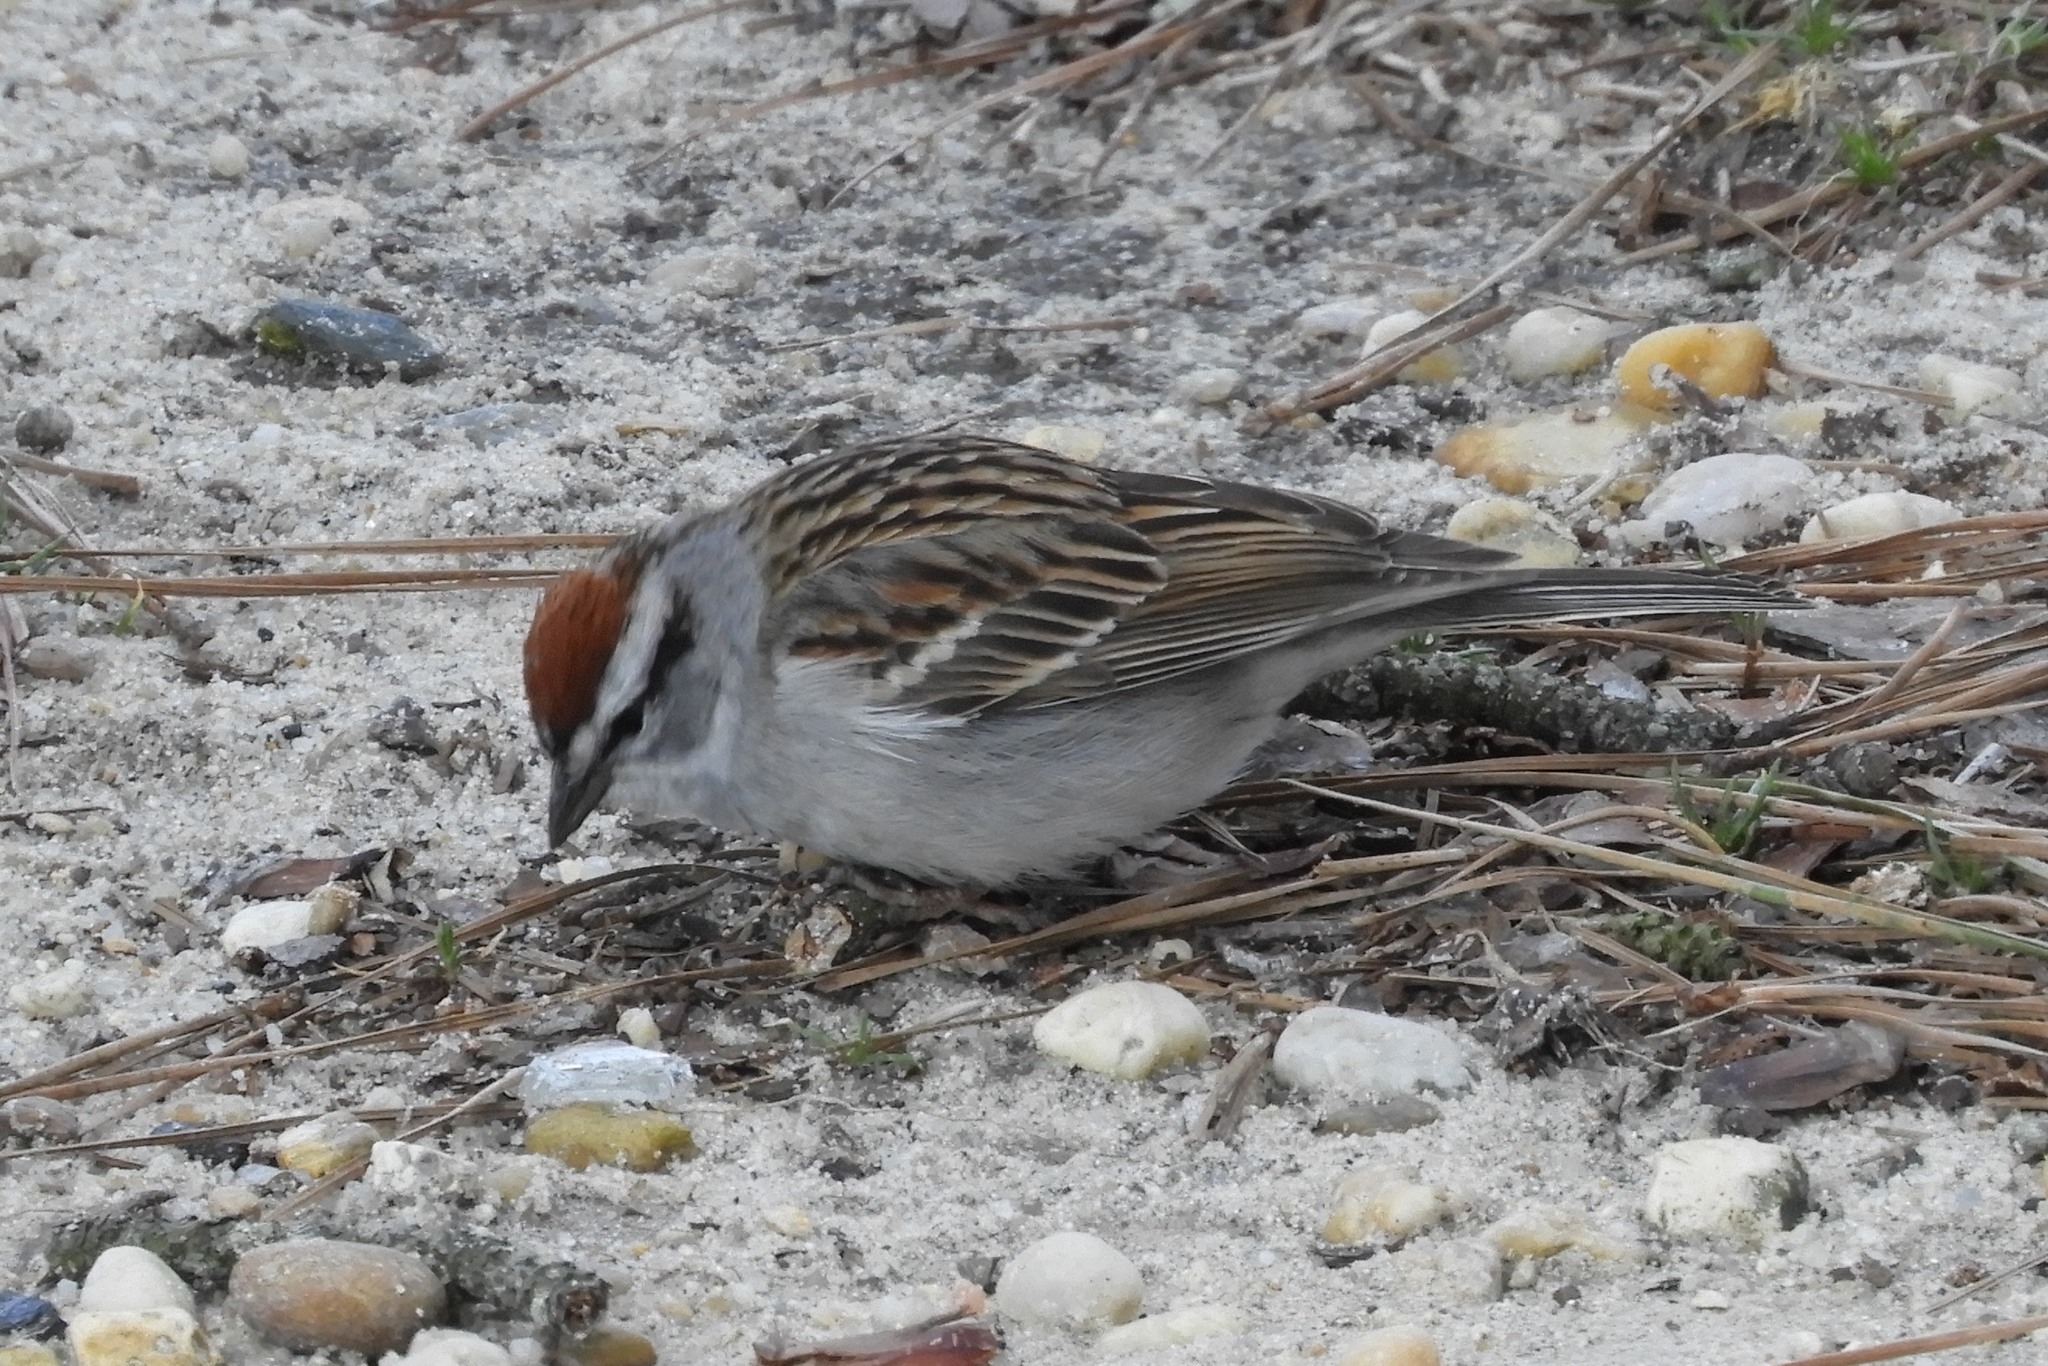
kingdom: Animalia
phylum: Chordata
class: Aves
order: Passeriformes
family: Passerellidae
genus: Spizella
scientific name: Spizella passerina
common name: Chipping sparrow
